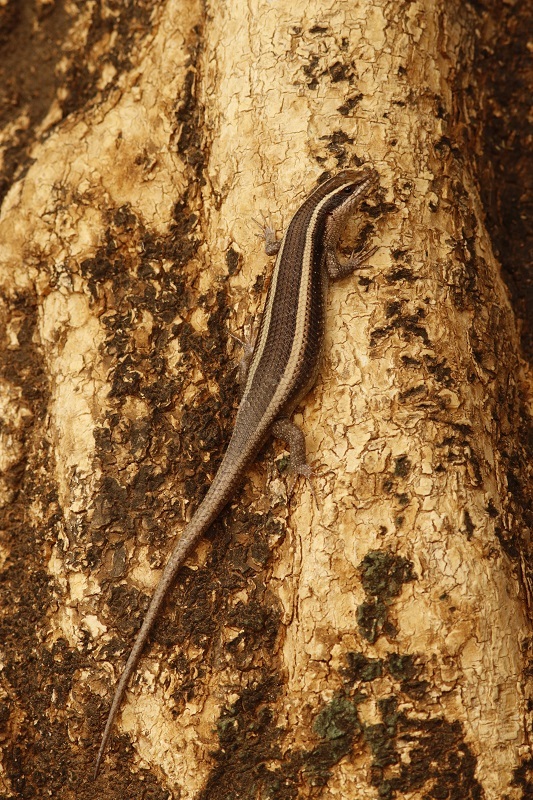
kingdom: Animalia
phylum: Chordata
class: Squamata
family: Scincidae
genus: Trachylepis
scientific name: Trachylepis striata
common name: African striped mabuya
